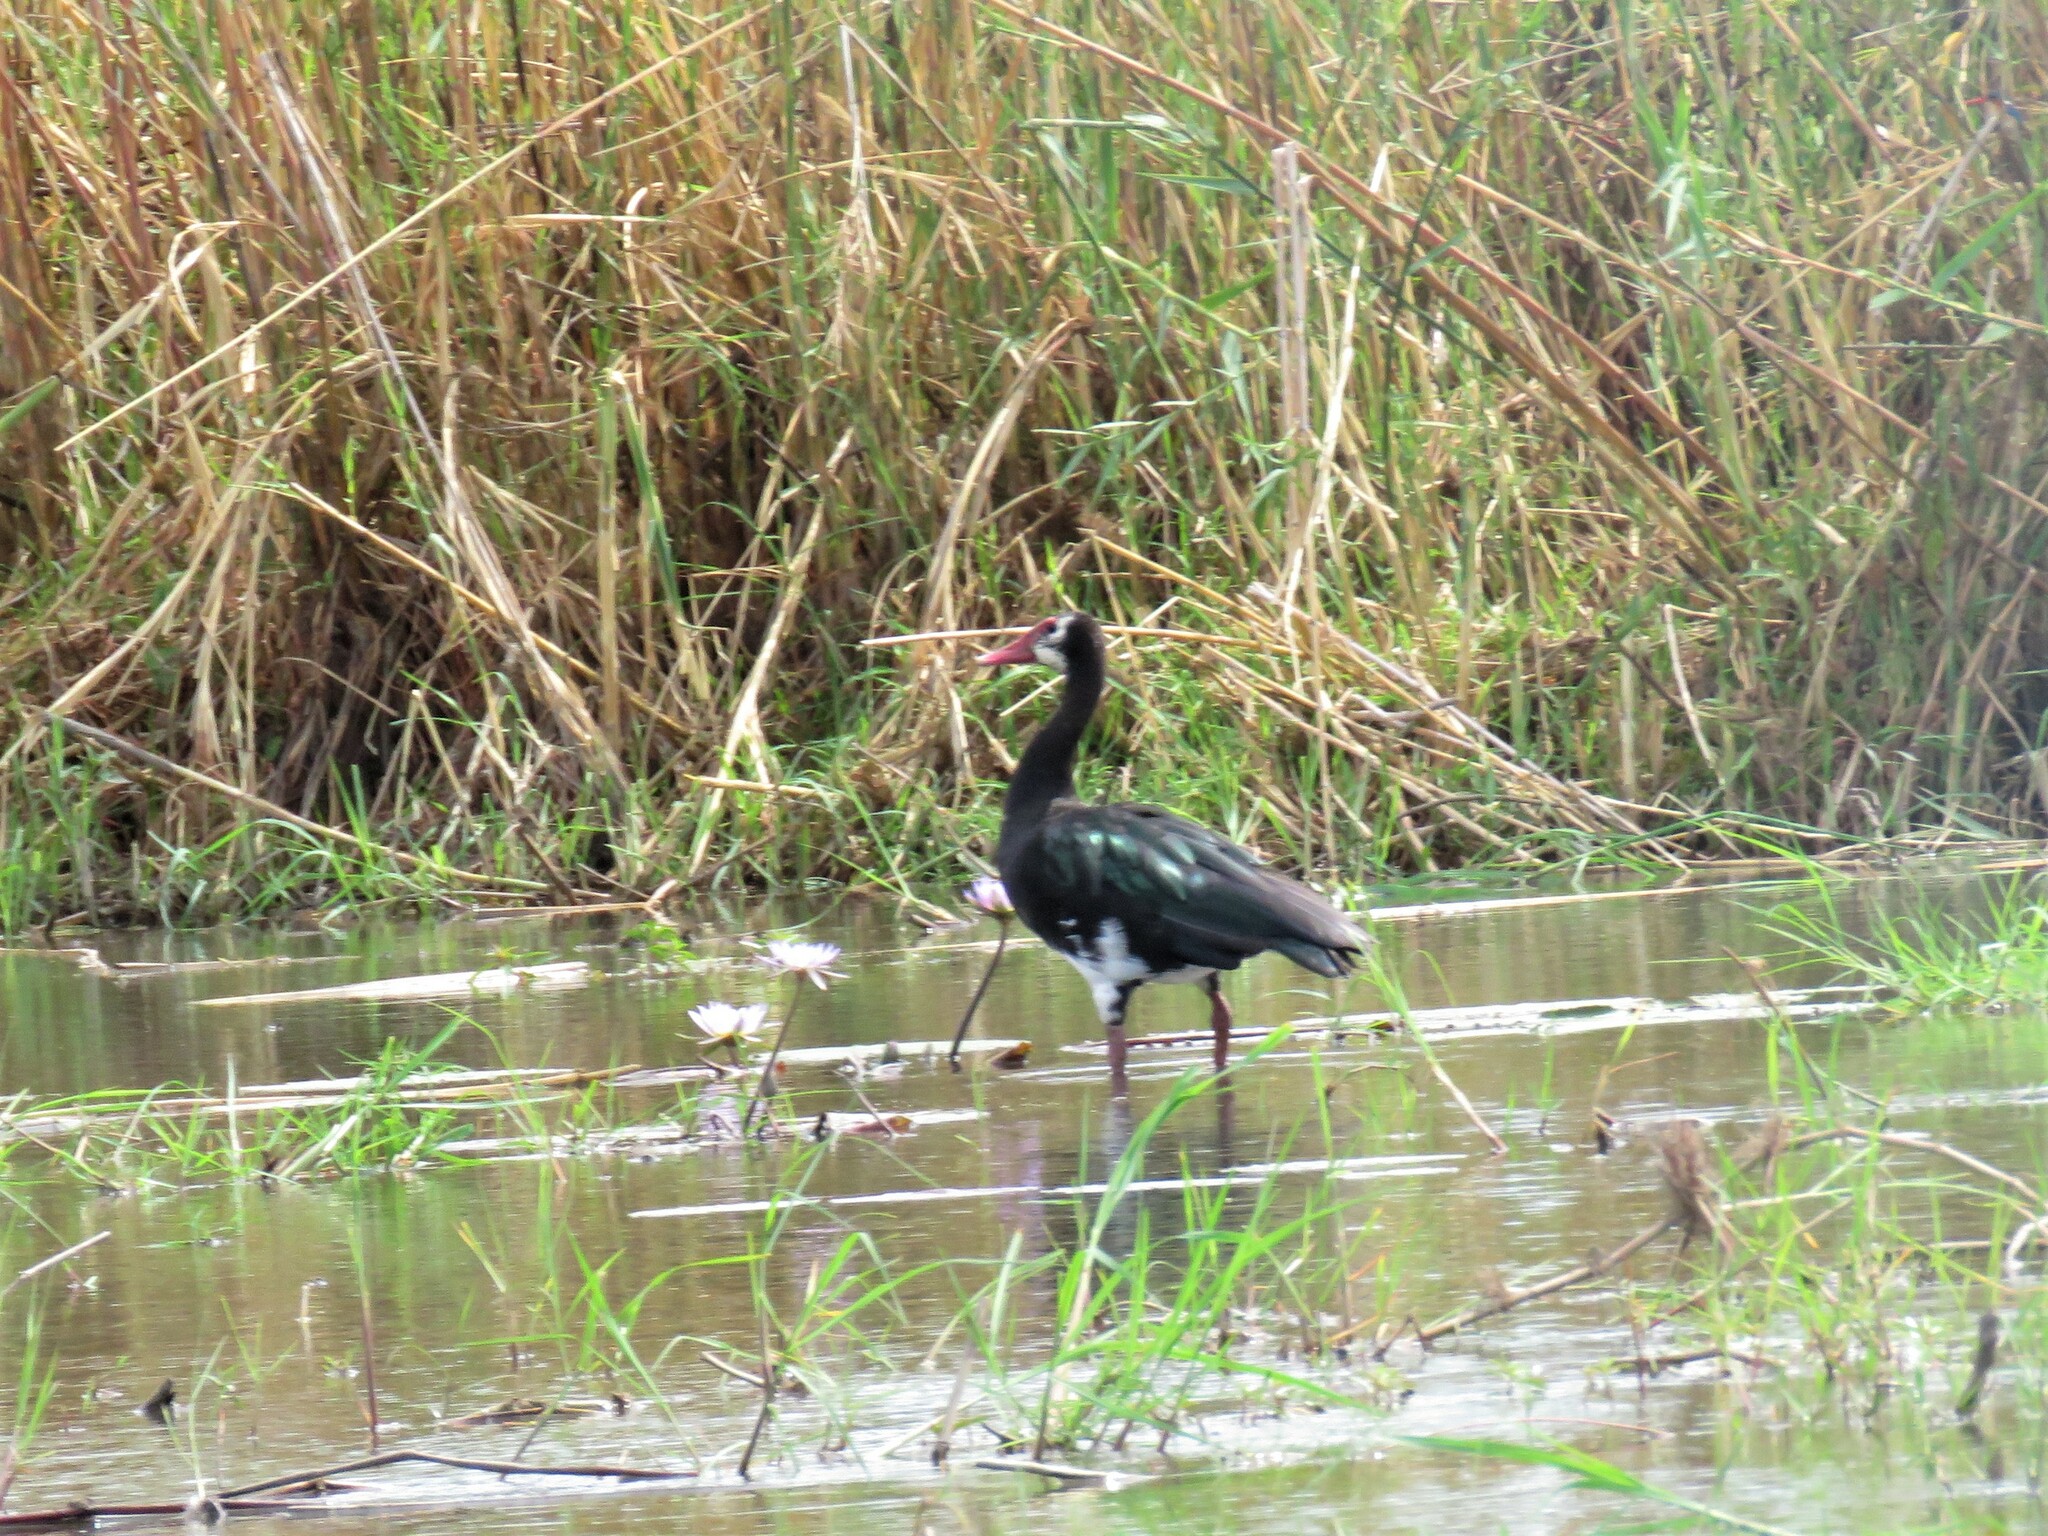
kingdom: Animalia
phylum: Chordata
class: Aves
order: Anseriformes
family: Anatidae
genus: Plectropterus
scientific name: Plectropterus gambensis
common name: Spur-winged goose
